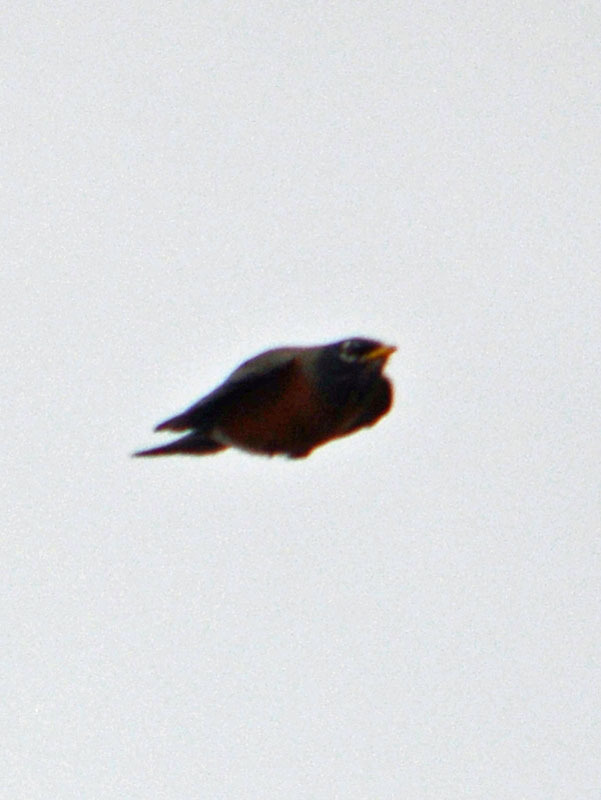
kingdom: Animalia
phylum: Chordata
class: Aves
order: Passeriformes
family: Turdidae
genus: Turdus
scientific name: Turdus migratorius
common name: American robin
